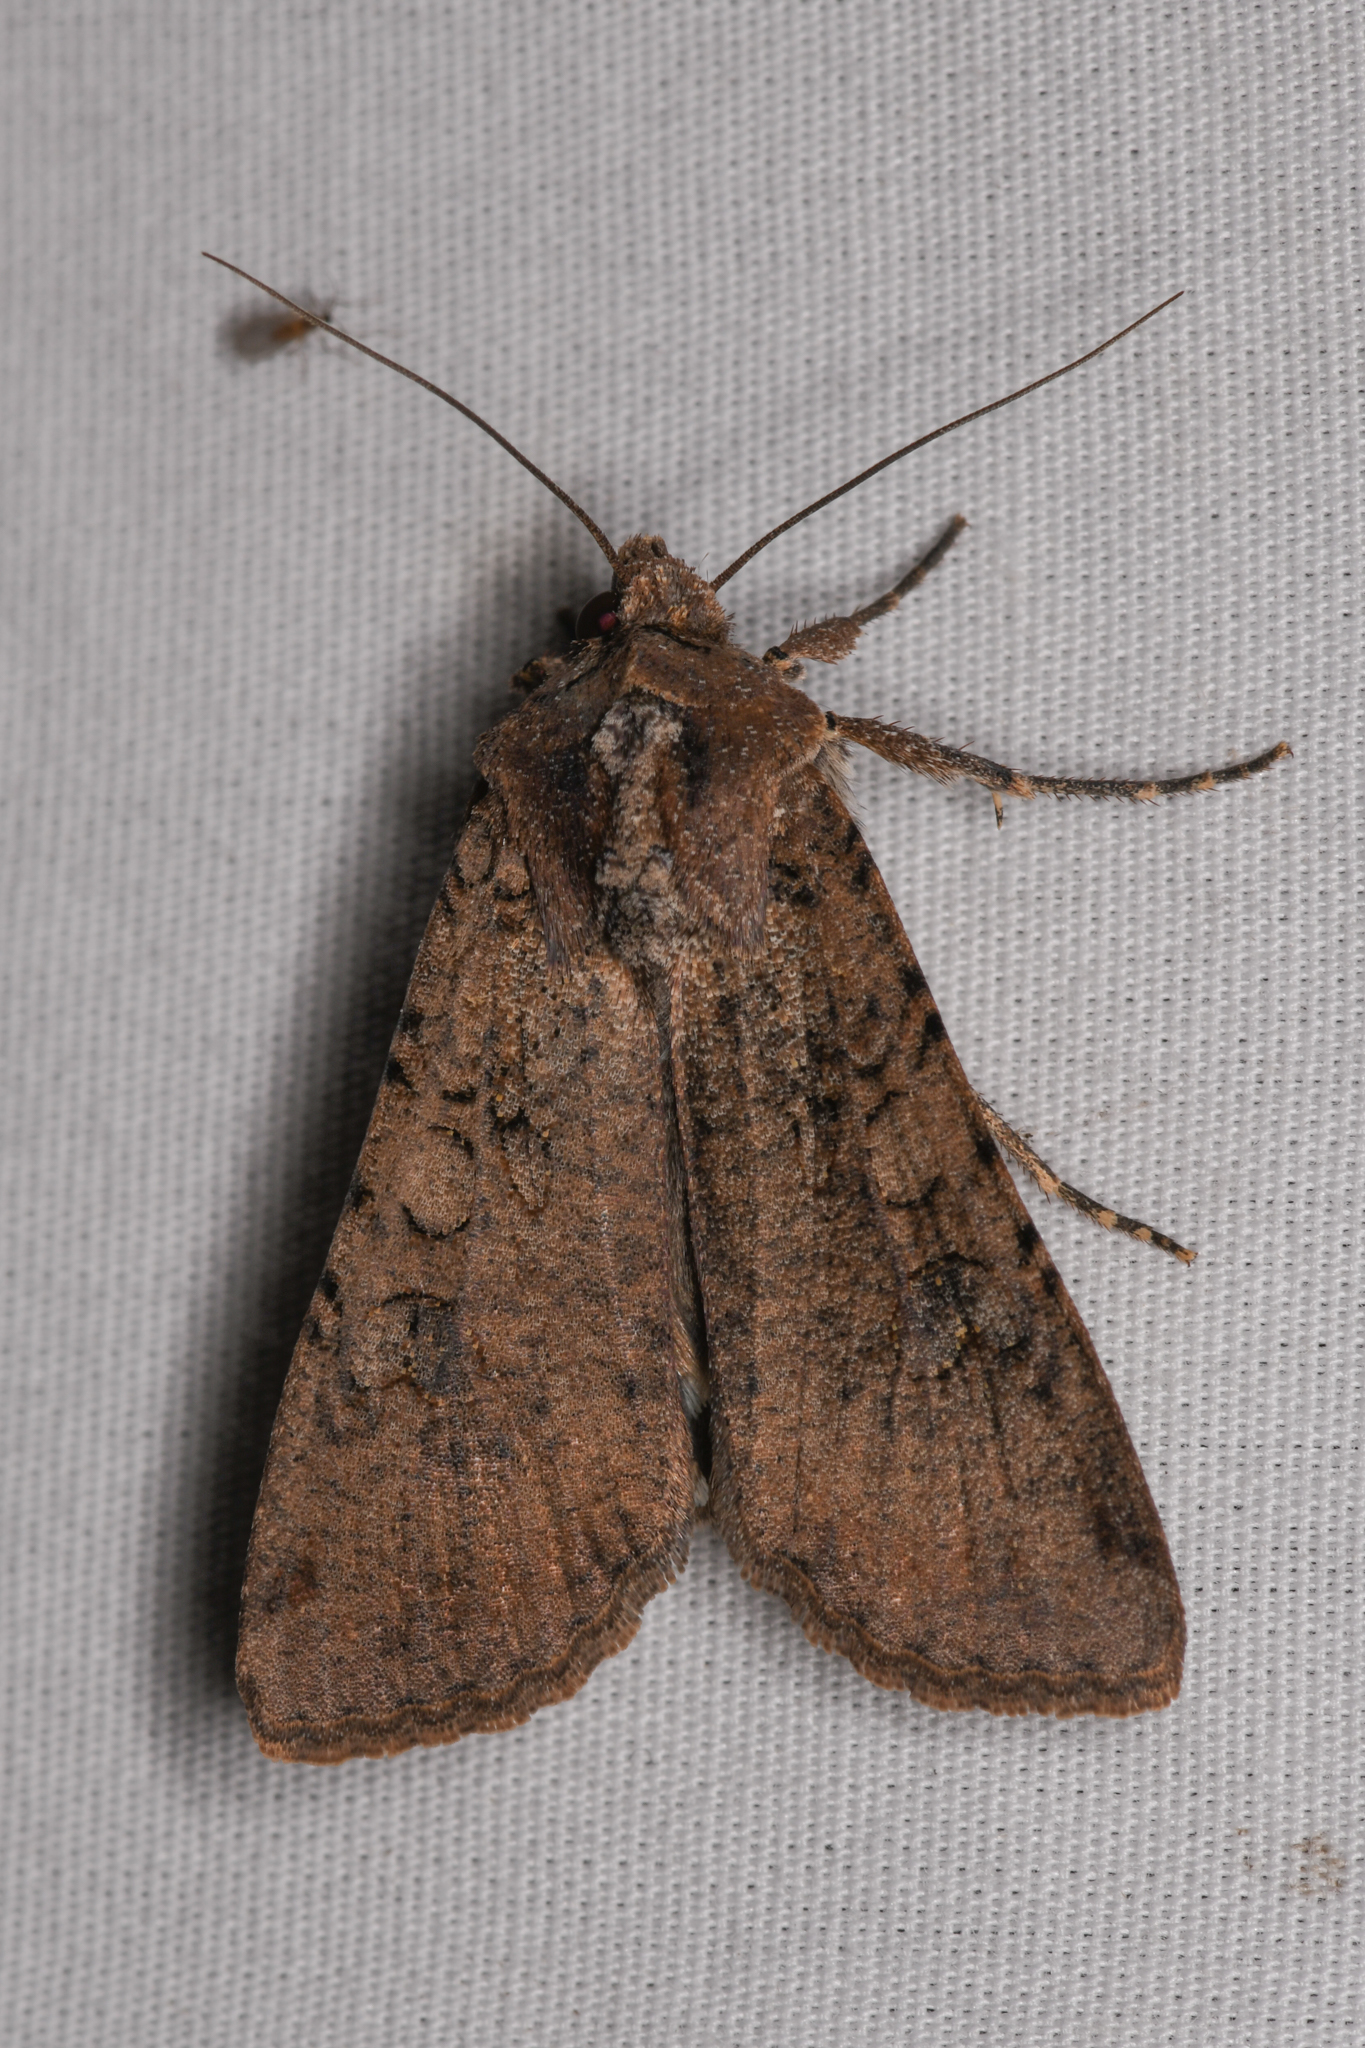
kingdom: Animalia
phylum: Arthropoda
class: Insecta
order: Lepidoptera
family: Noctuidae
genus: Peridroma
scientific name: Peridroma saucia
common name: Pearly underwing
